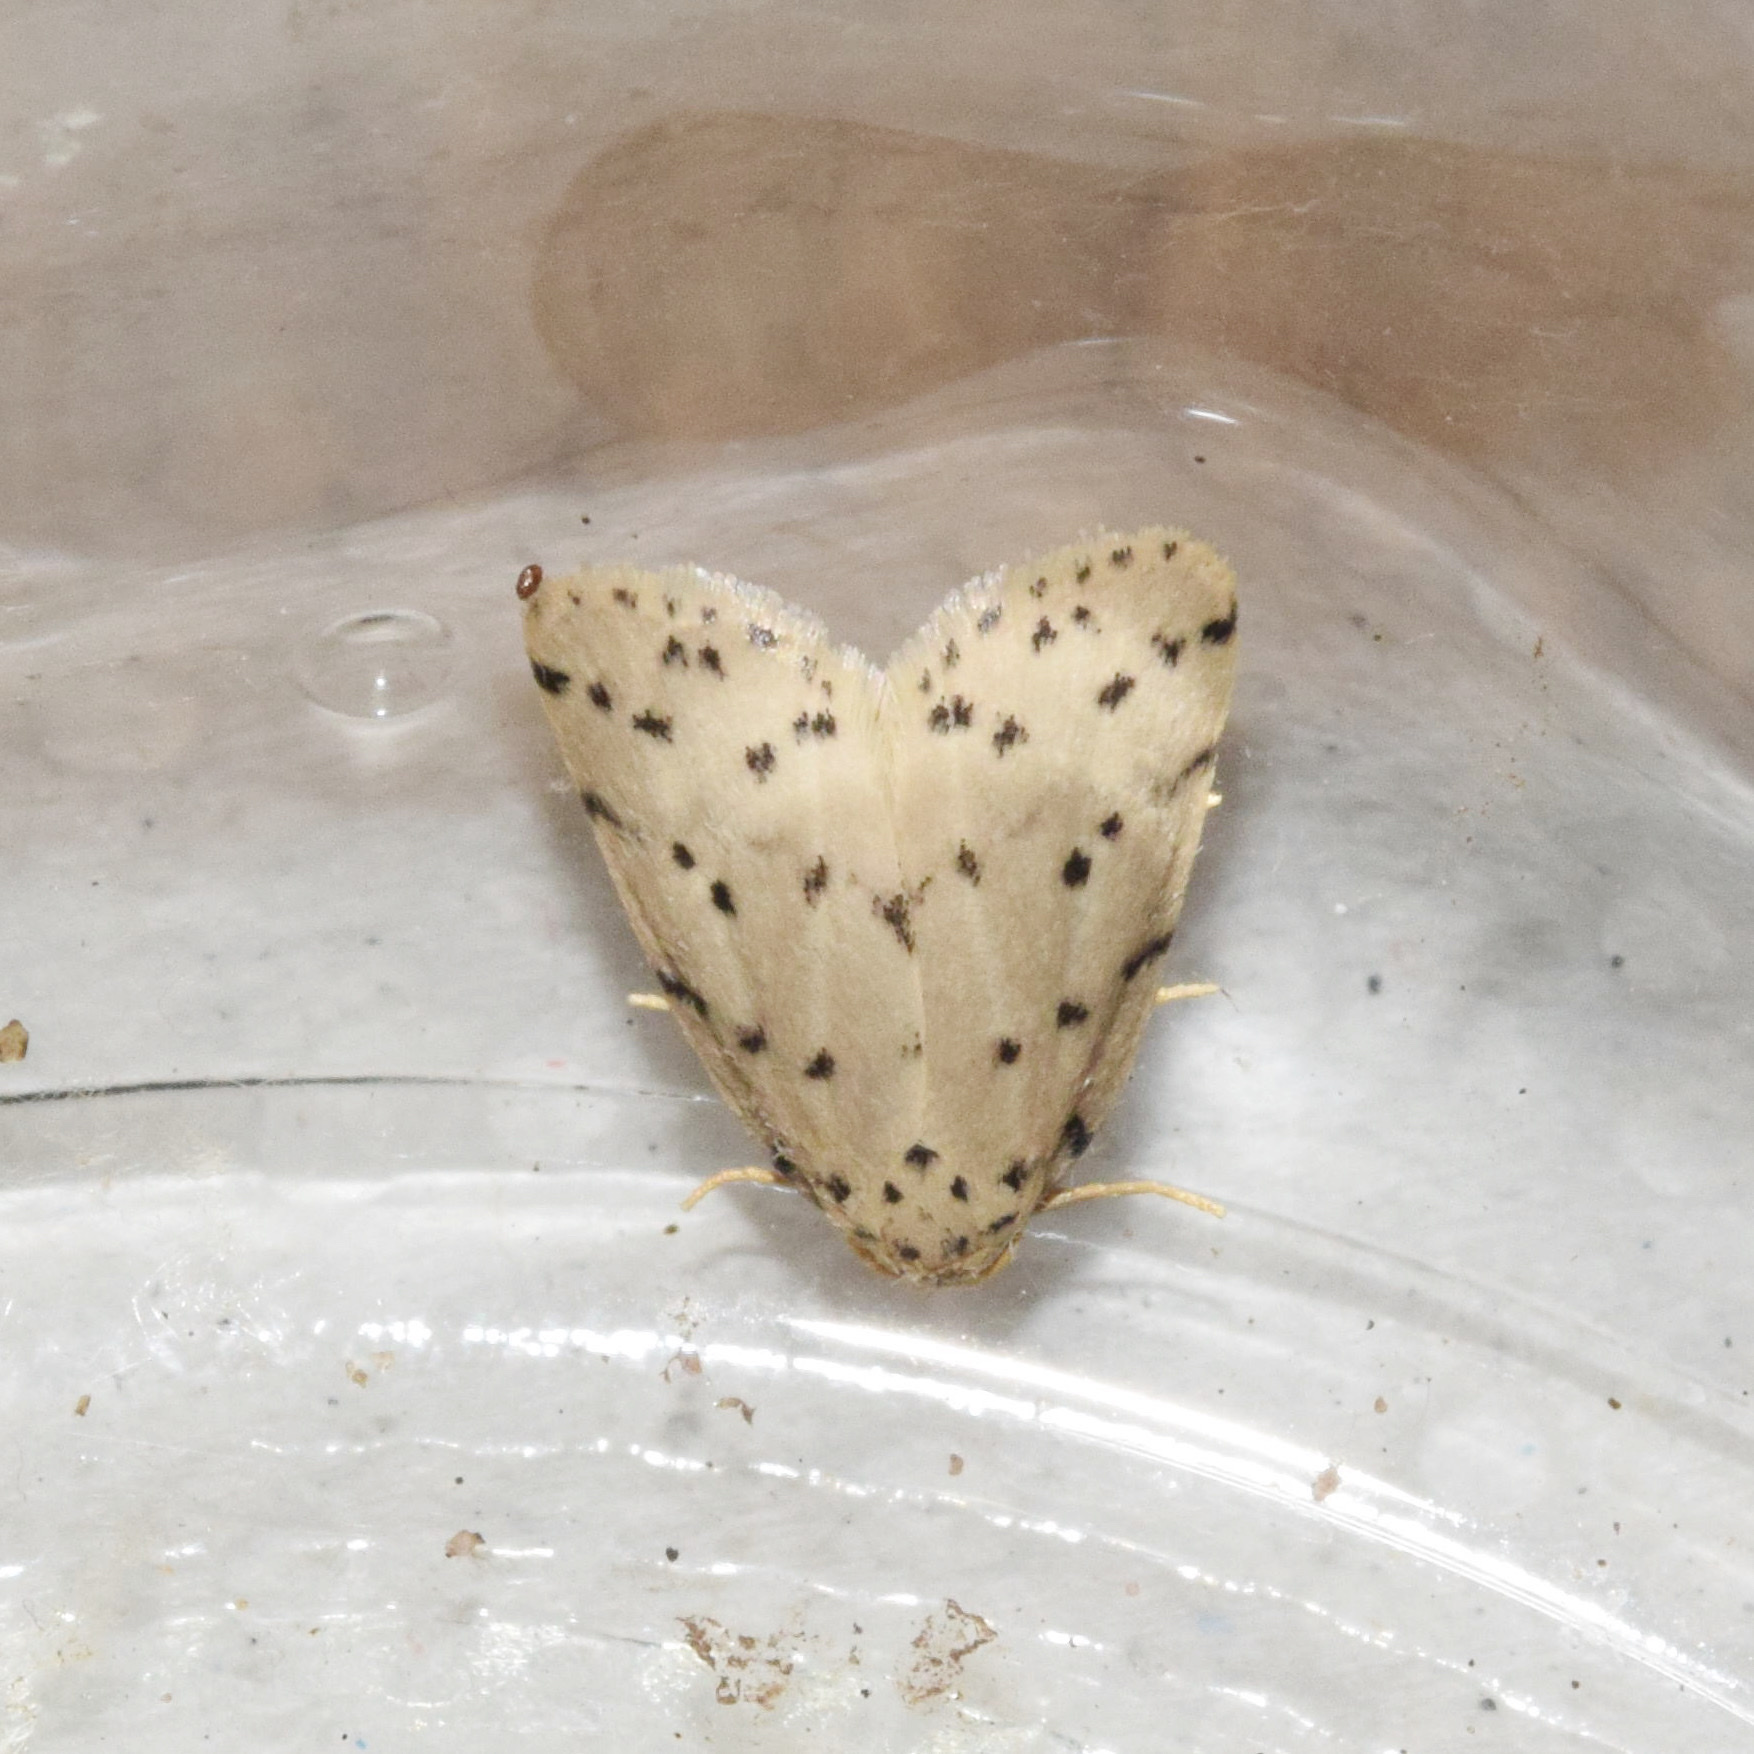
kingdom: Animalia
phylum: Arthropoda
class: Insecta
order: Lepidoptera
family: Erebidae
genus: Eugoa
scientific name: Eugoa africana
